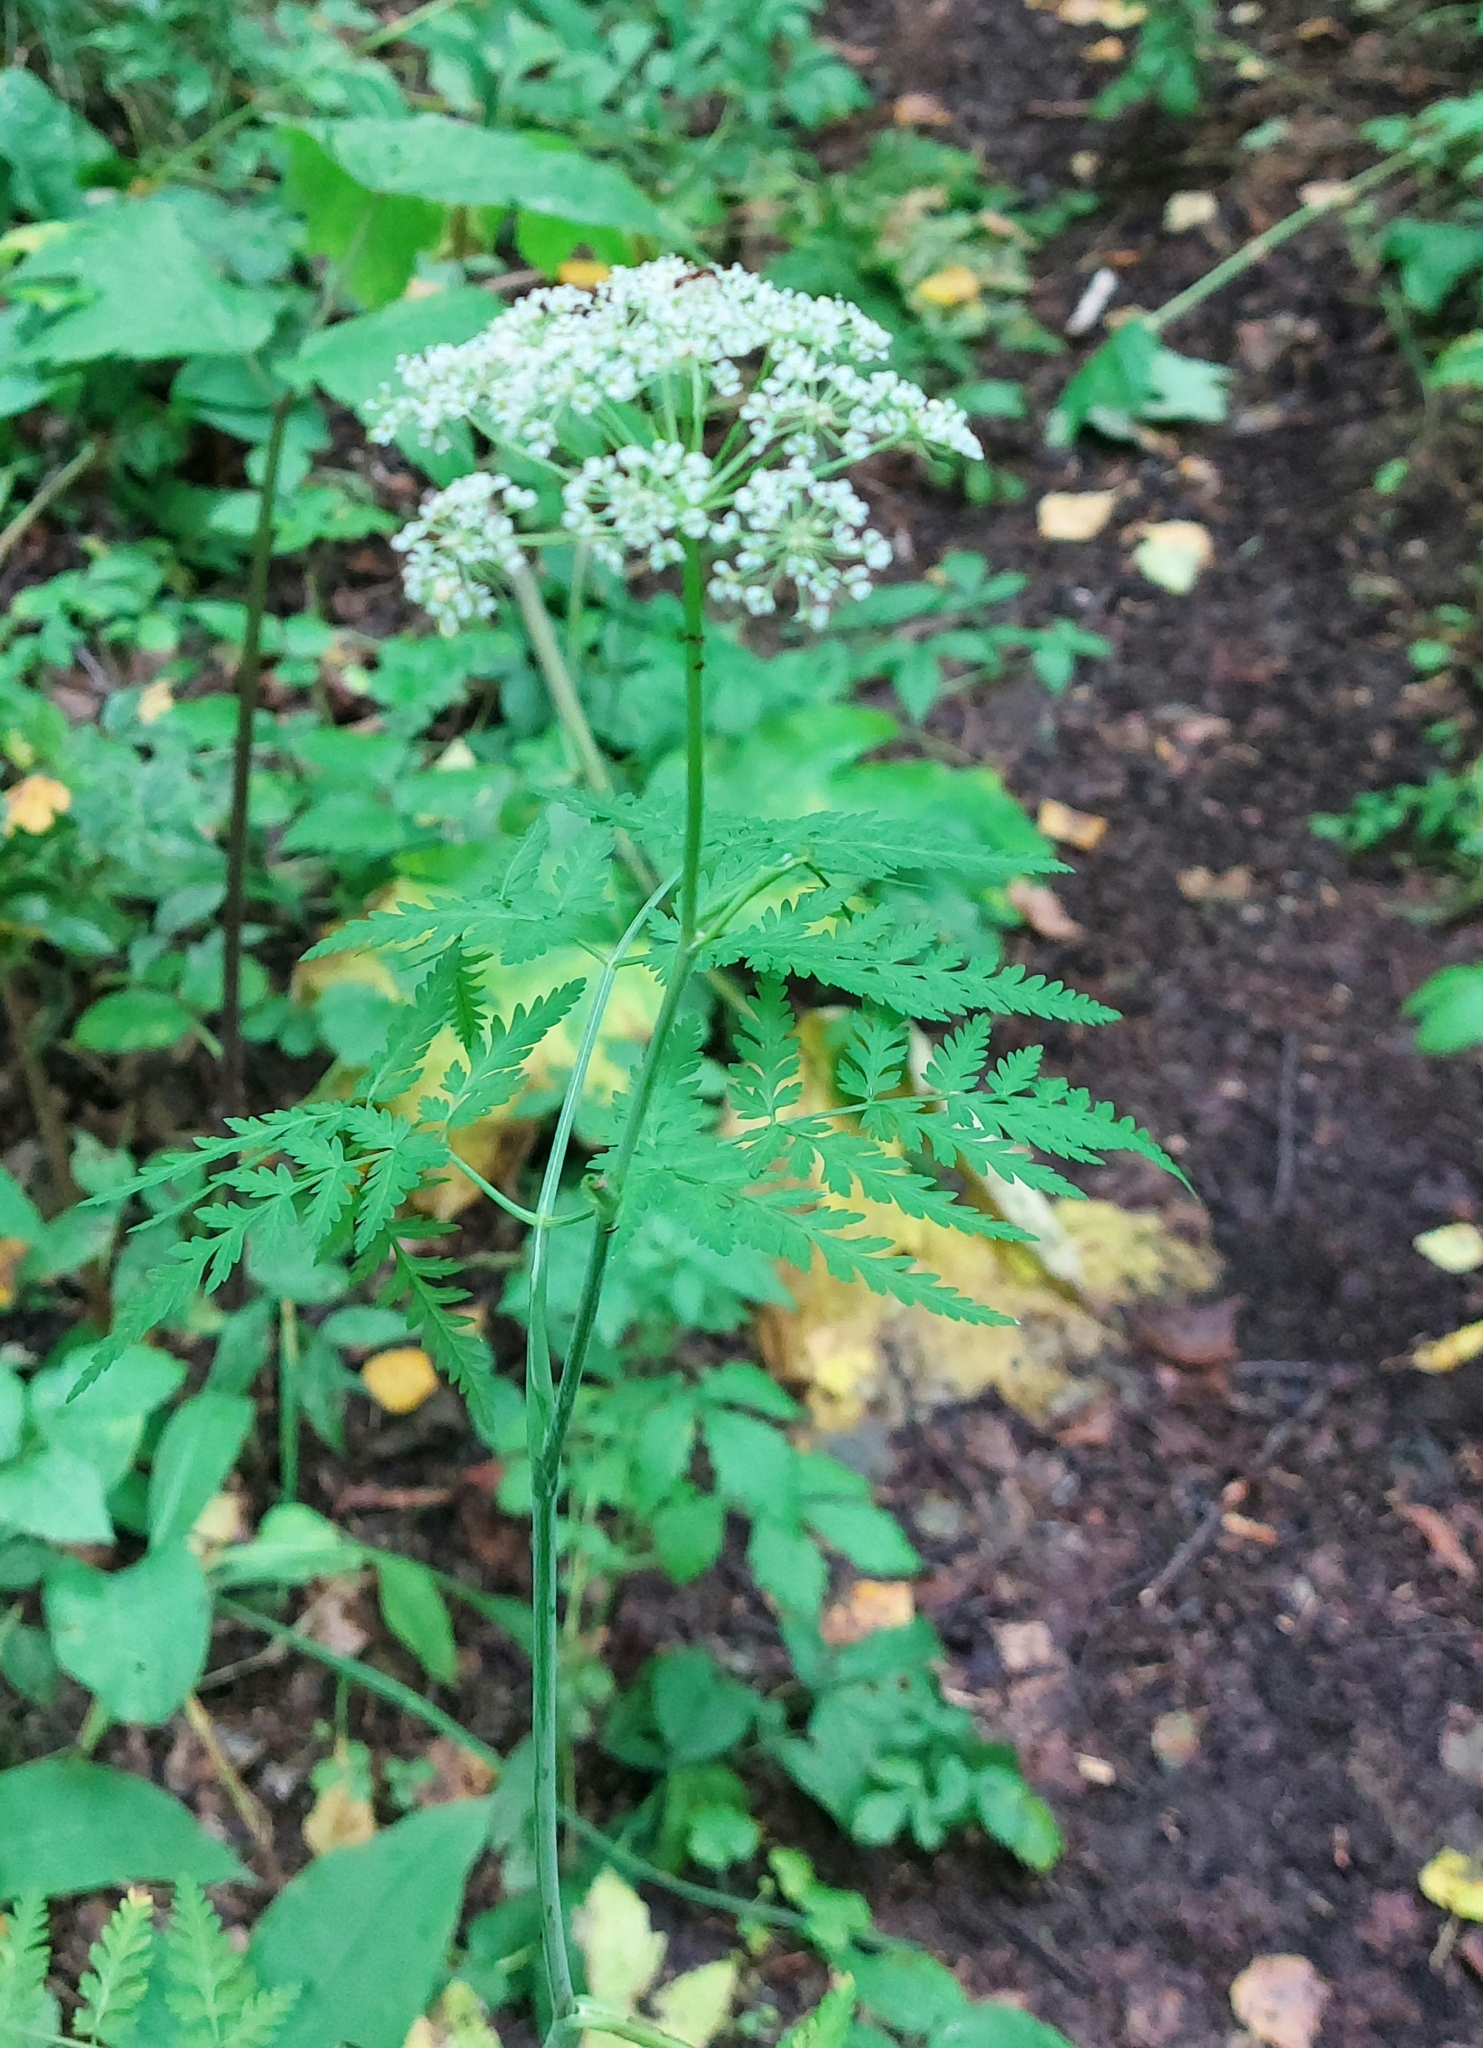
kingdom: Plantae
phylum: Tracheophyta
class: Magnoliopsida
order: Apiales
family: Apiaceae
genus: Conioselinum
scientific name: Conioselinum tataricum
